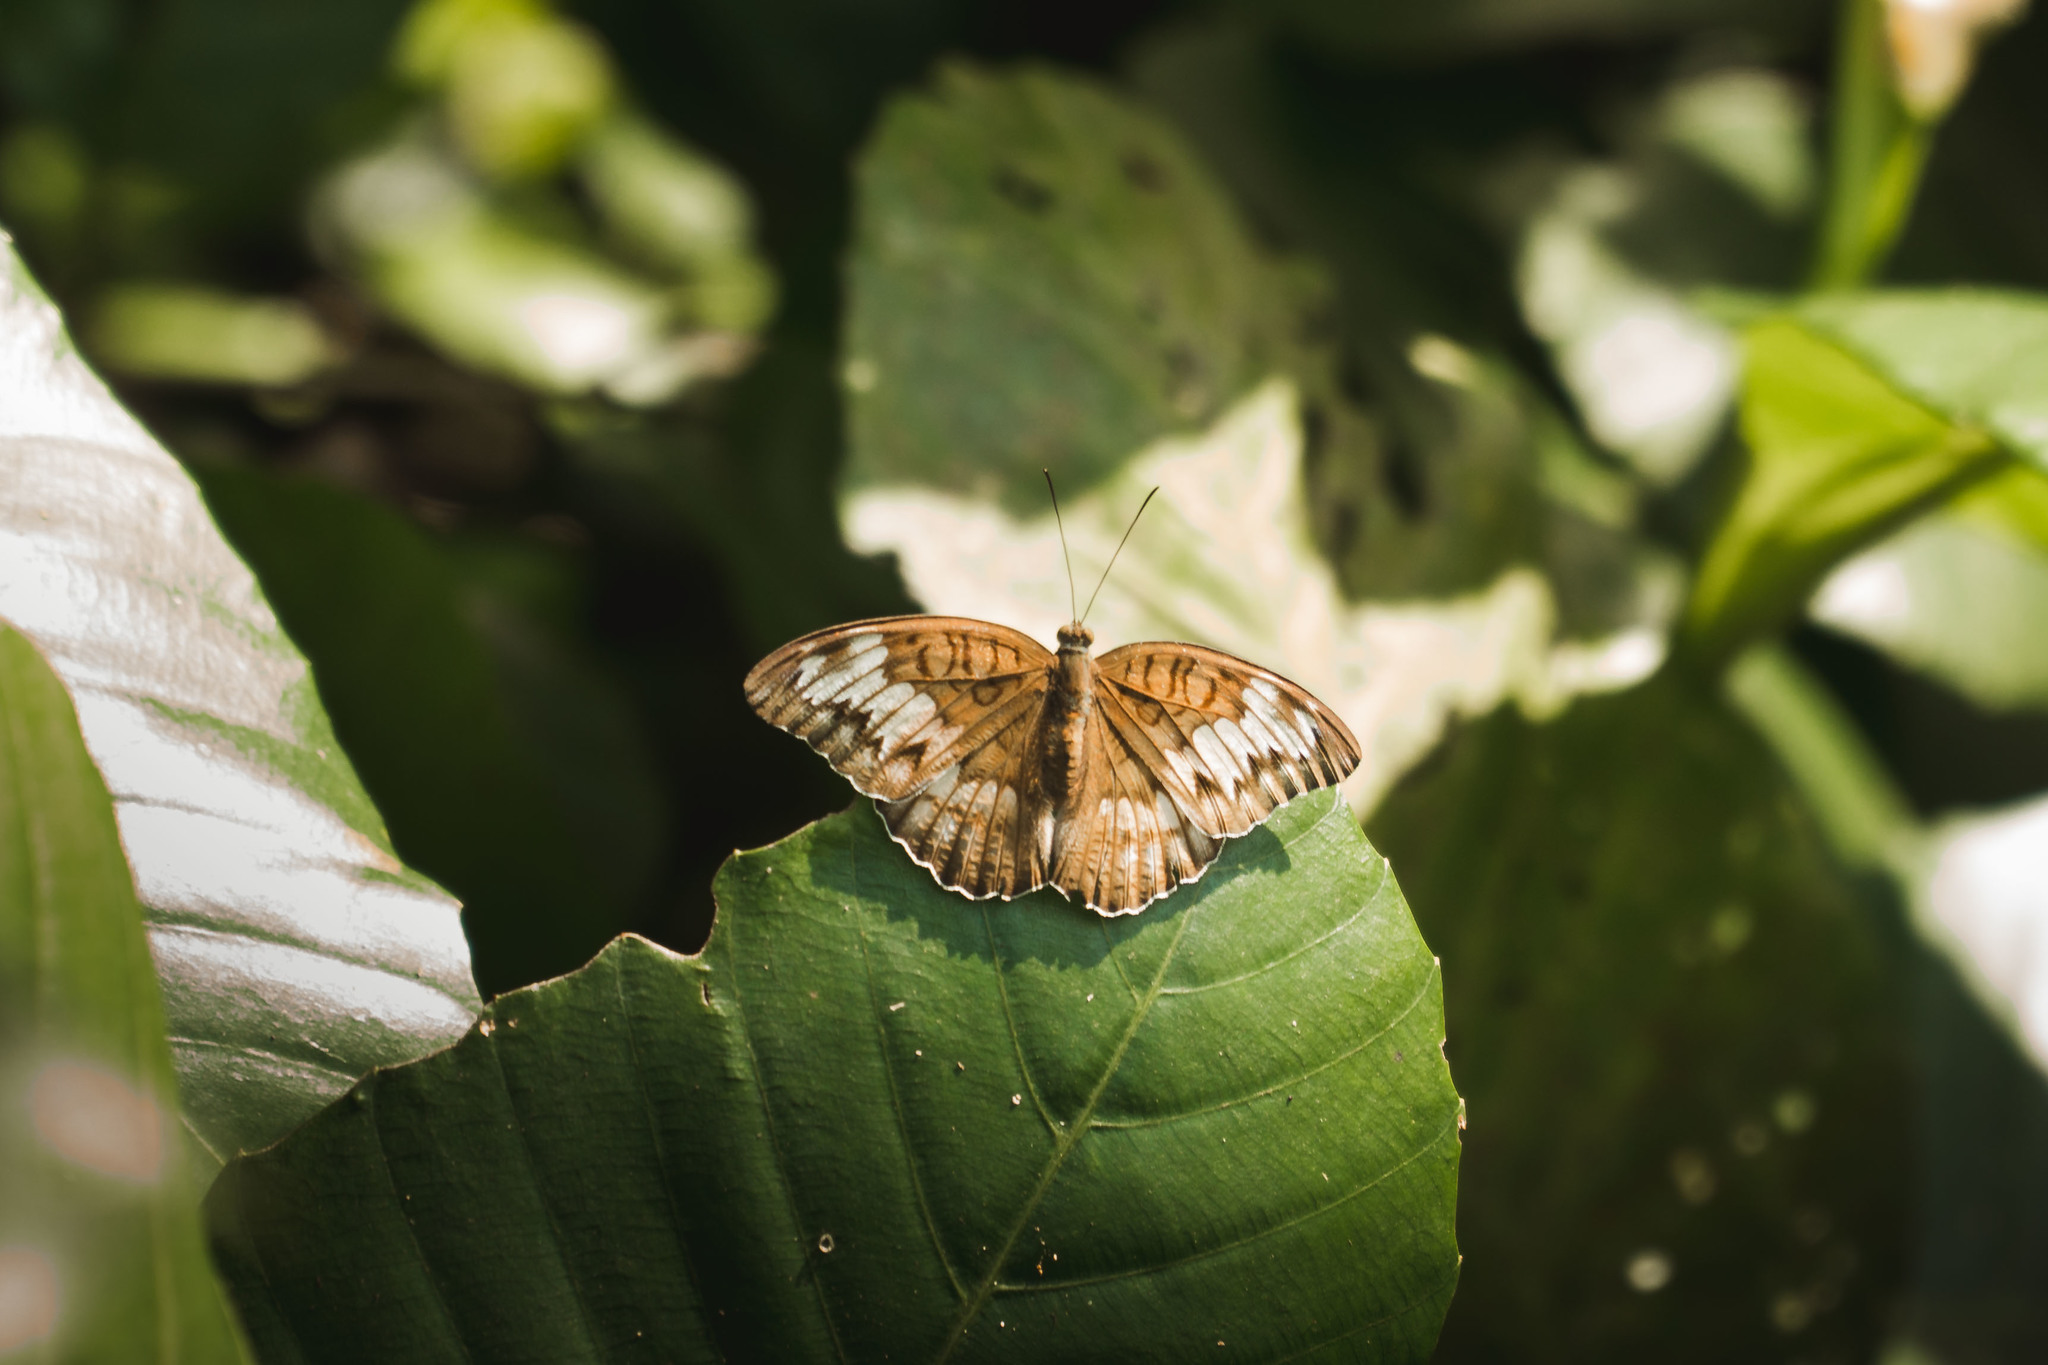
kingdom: Animalia
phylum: Arthropoda
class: Insecta
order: Lepidoptera
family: Nymphalidae
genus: Tanaecia
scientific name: Tanaecia iapis
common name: Horsfield's baron
